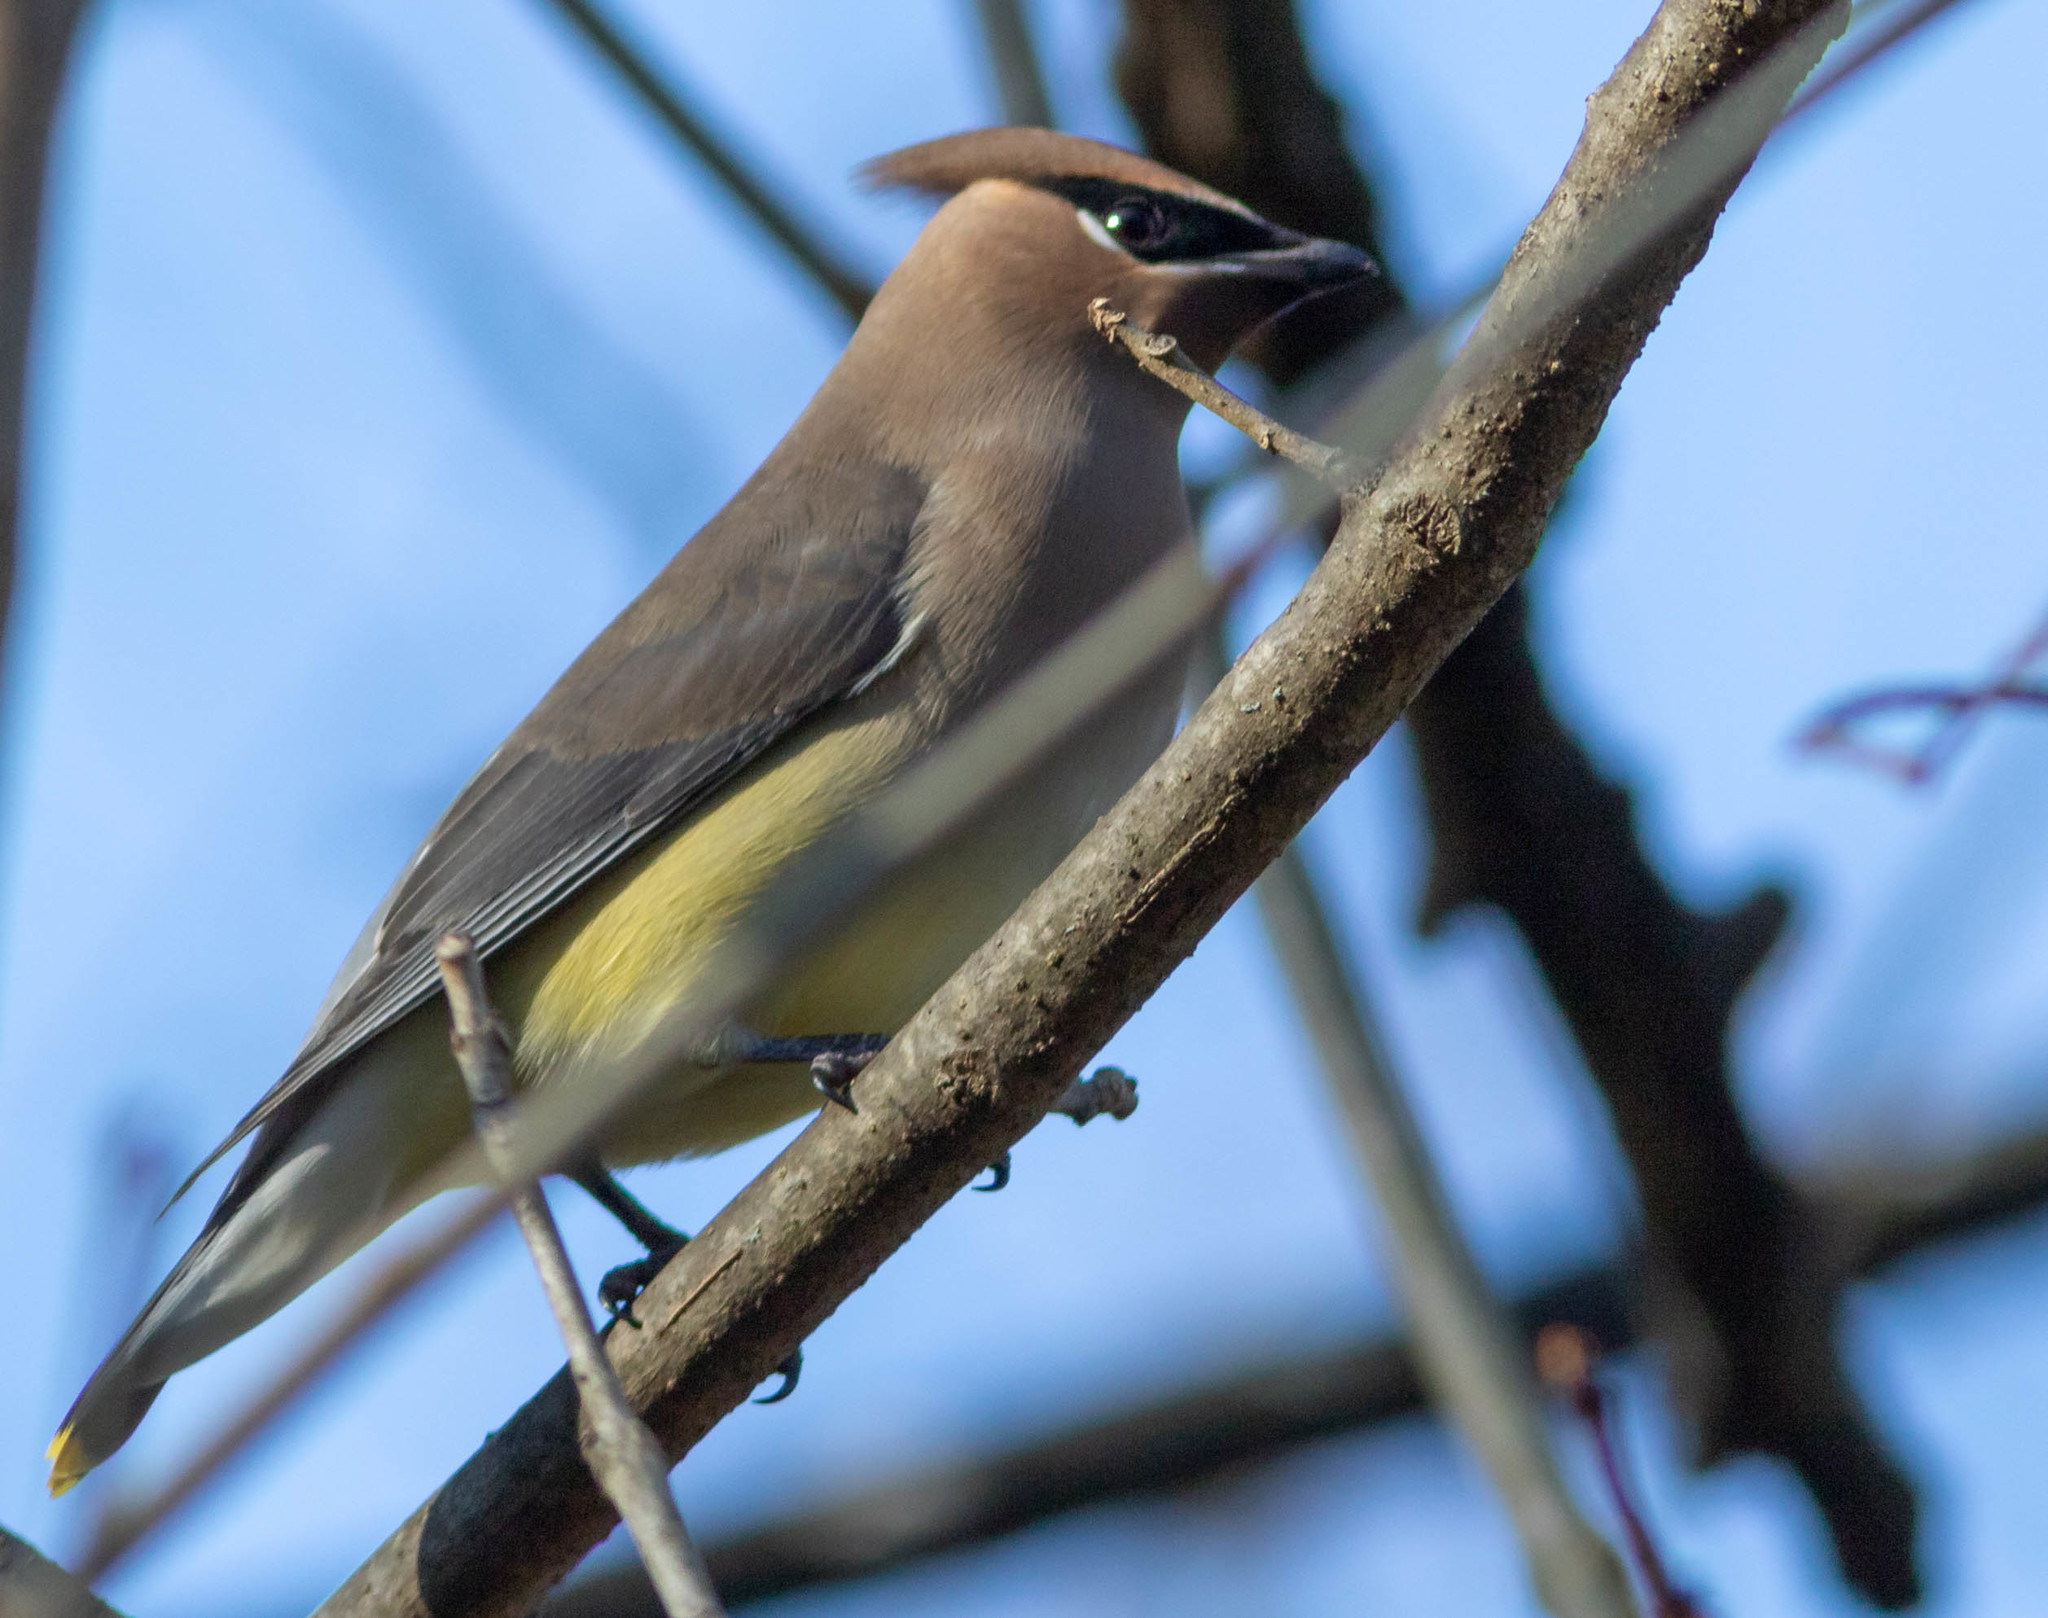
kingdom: Animalia
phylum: Chordata
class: Aves
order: Passeriformes
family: Bombycillidae
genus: Bombycilla
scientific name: Bombycilla cedrorum
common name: Cedar waxwing
